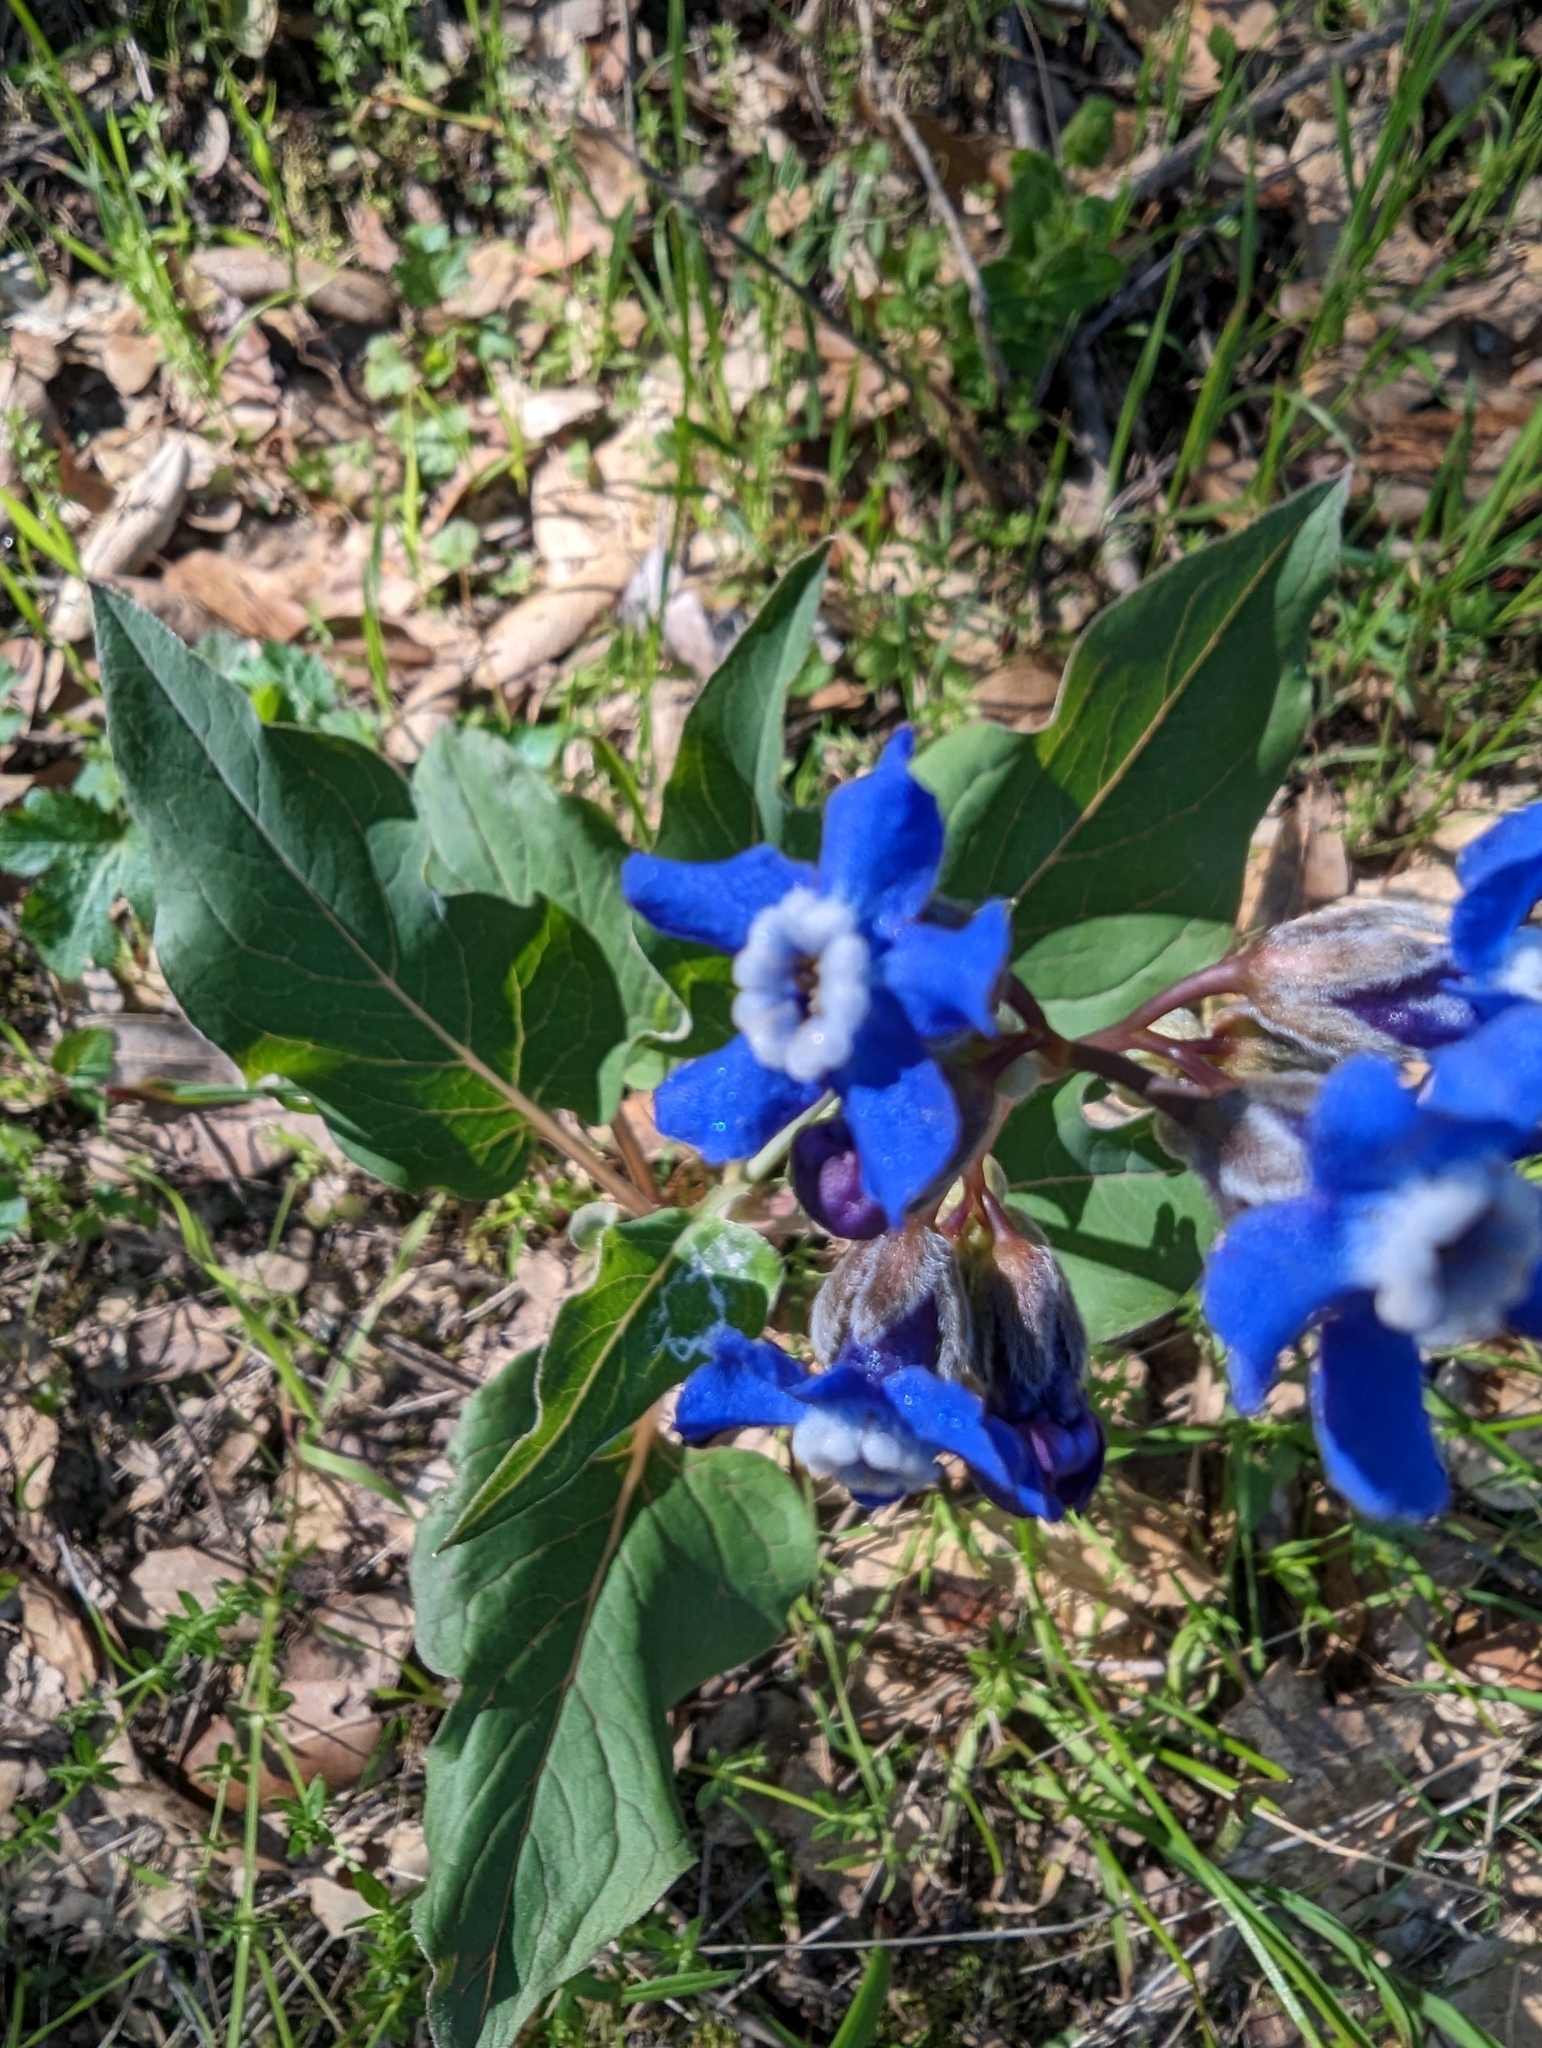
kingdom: Plantae
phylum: Tracheophyta
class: Magnoliopsida
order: Boraginales
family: Boraginaceae
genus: Adelinia
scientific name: Adelinia grande
